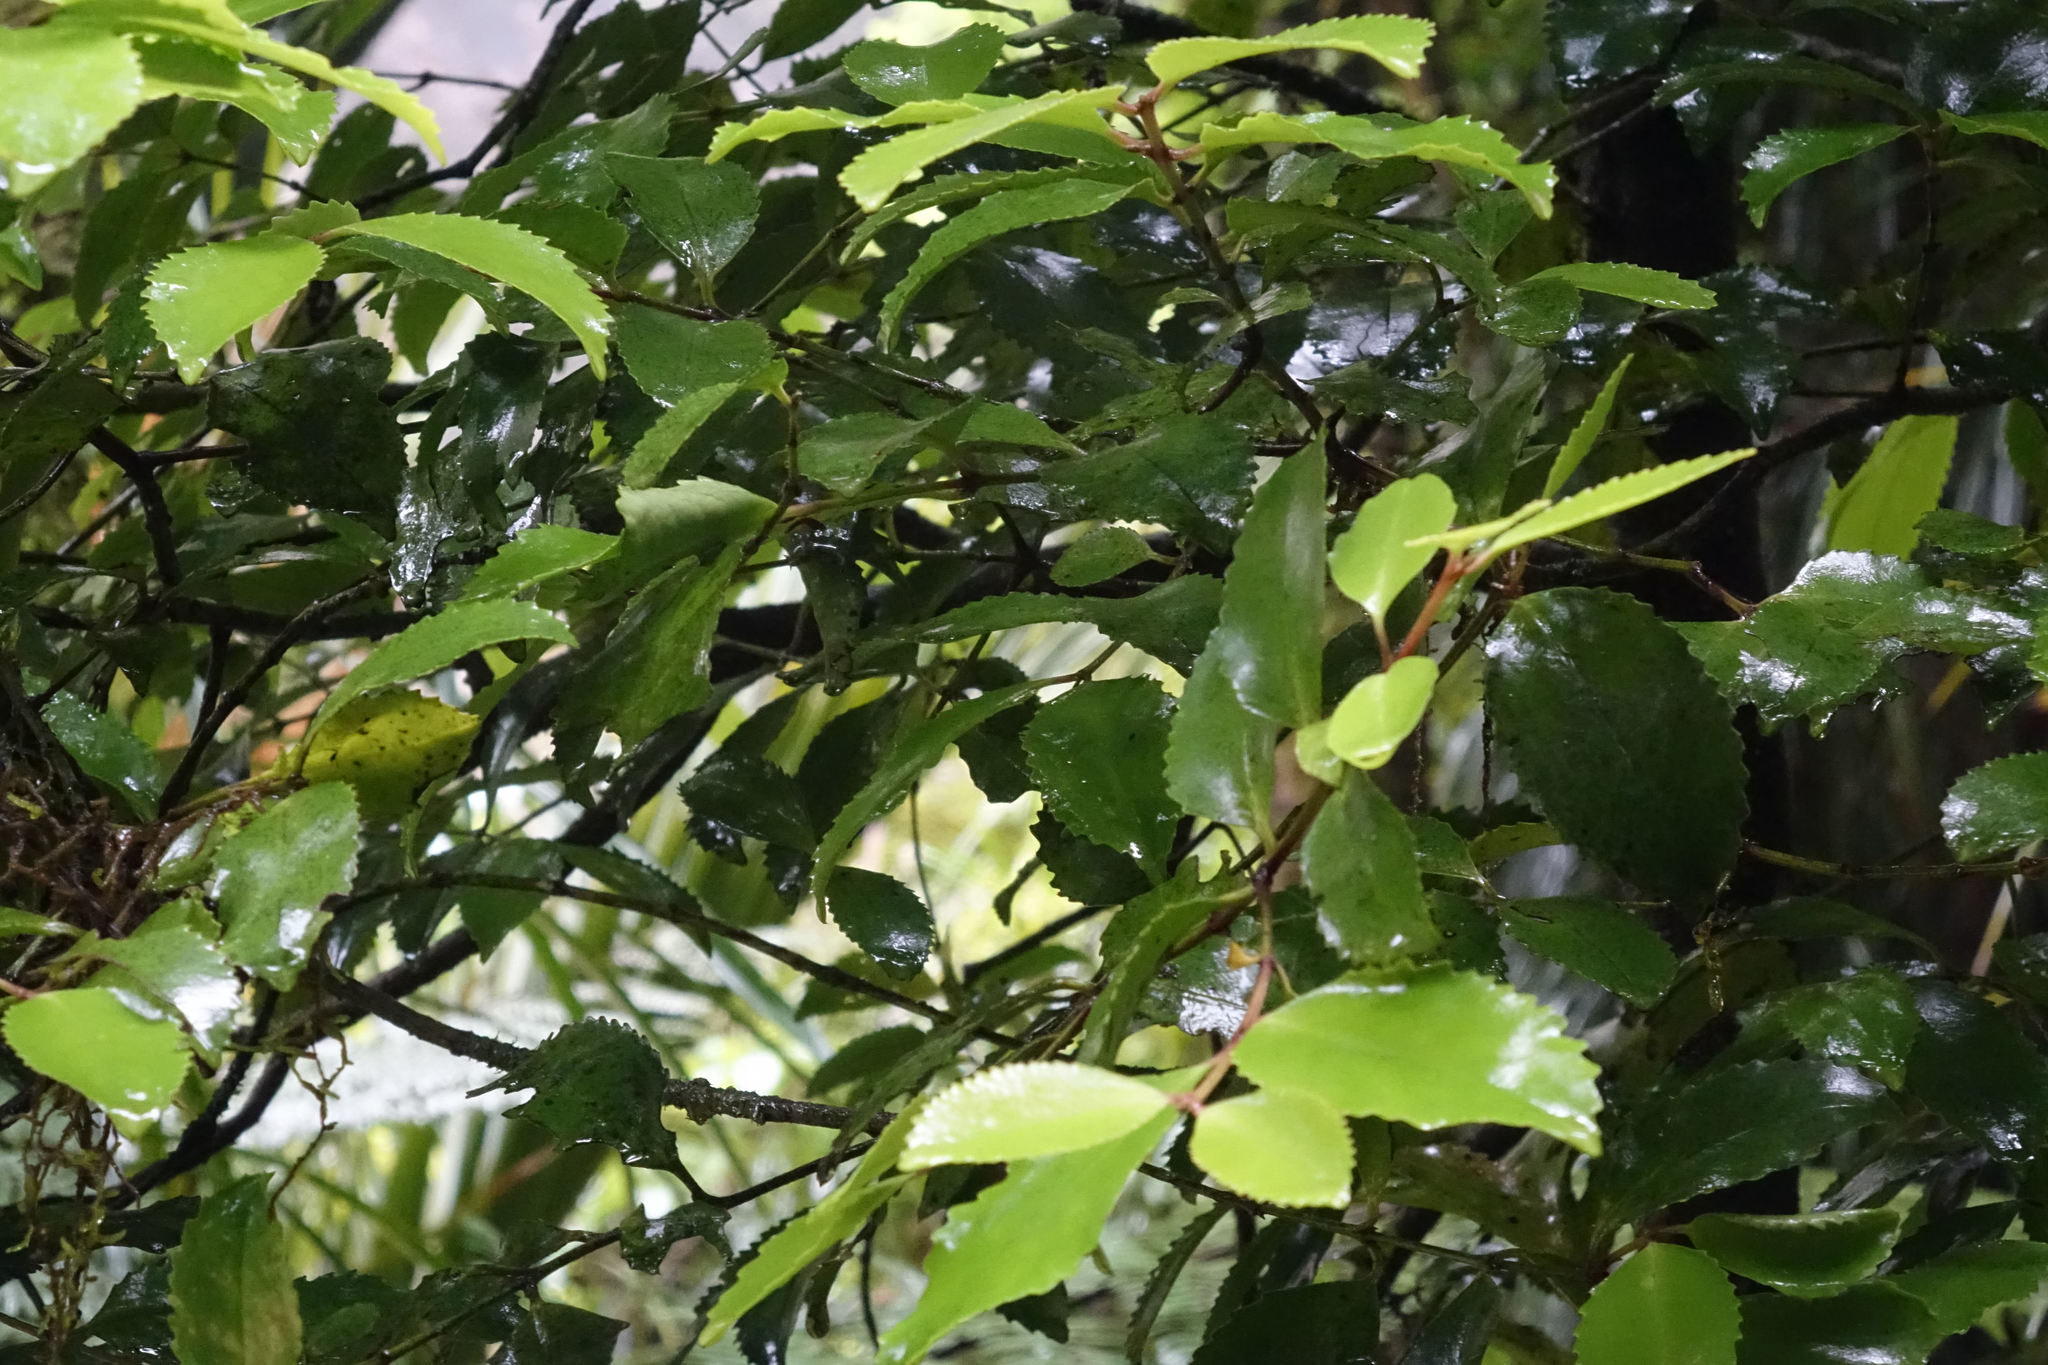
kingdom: Plantae
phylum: Tracheophyta
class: Magnoliopsida
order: Laurales
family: Atherospermataceae
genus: Laurelia
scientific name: Laurelia novae-zelandiae
